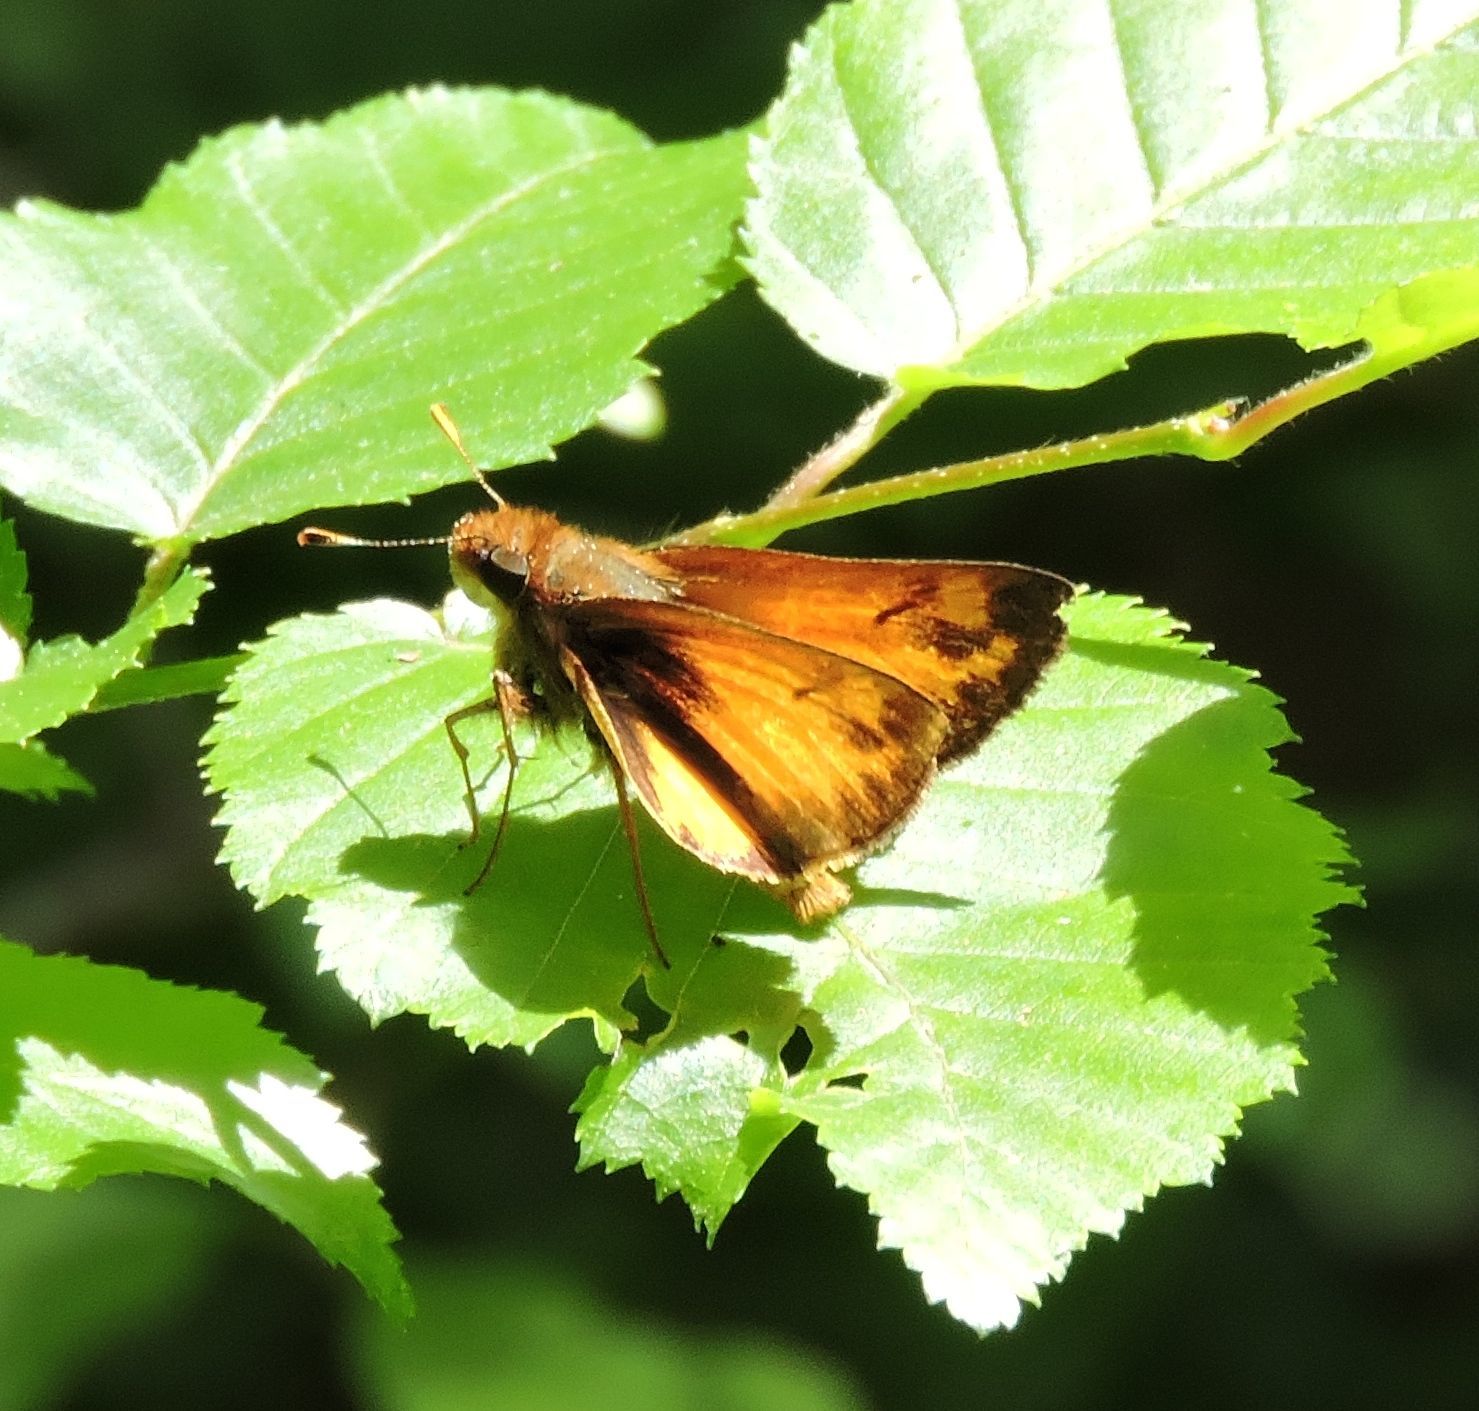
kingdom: Animalia
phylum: Arthropoda
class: Insecta
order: Lepidoptera
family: Hesperiidae
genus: Lon
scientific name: Lon zabulon
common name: Zabulon skipper
